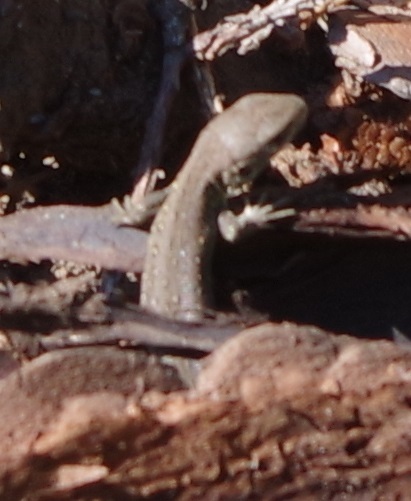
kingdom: Animalia
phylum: Chordata
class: Squamata
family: Lacertidae
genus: Lacerta
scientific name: Lacerta agilis
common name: Sand lizard
